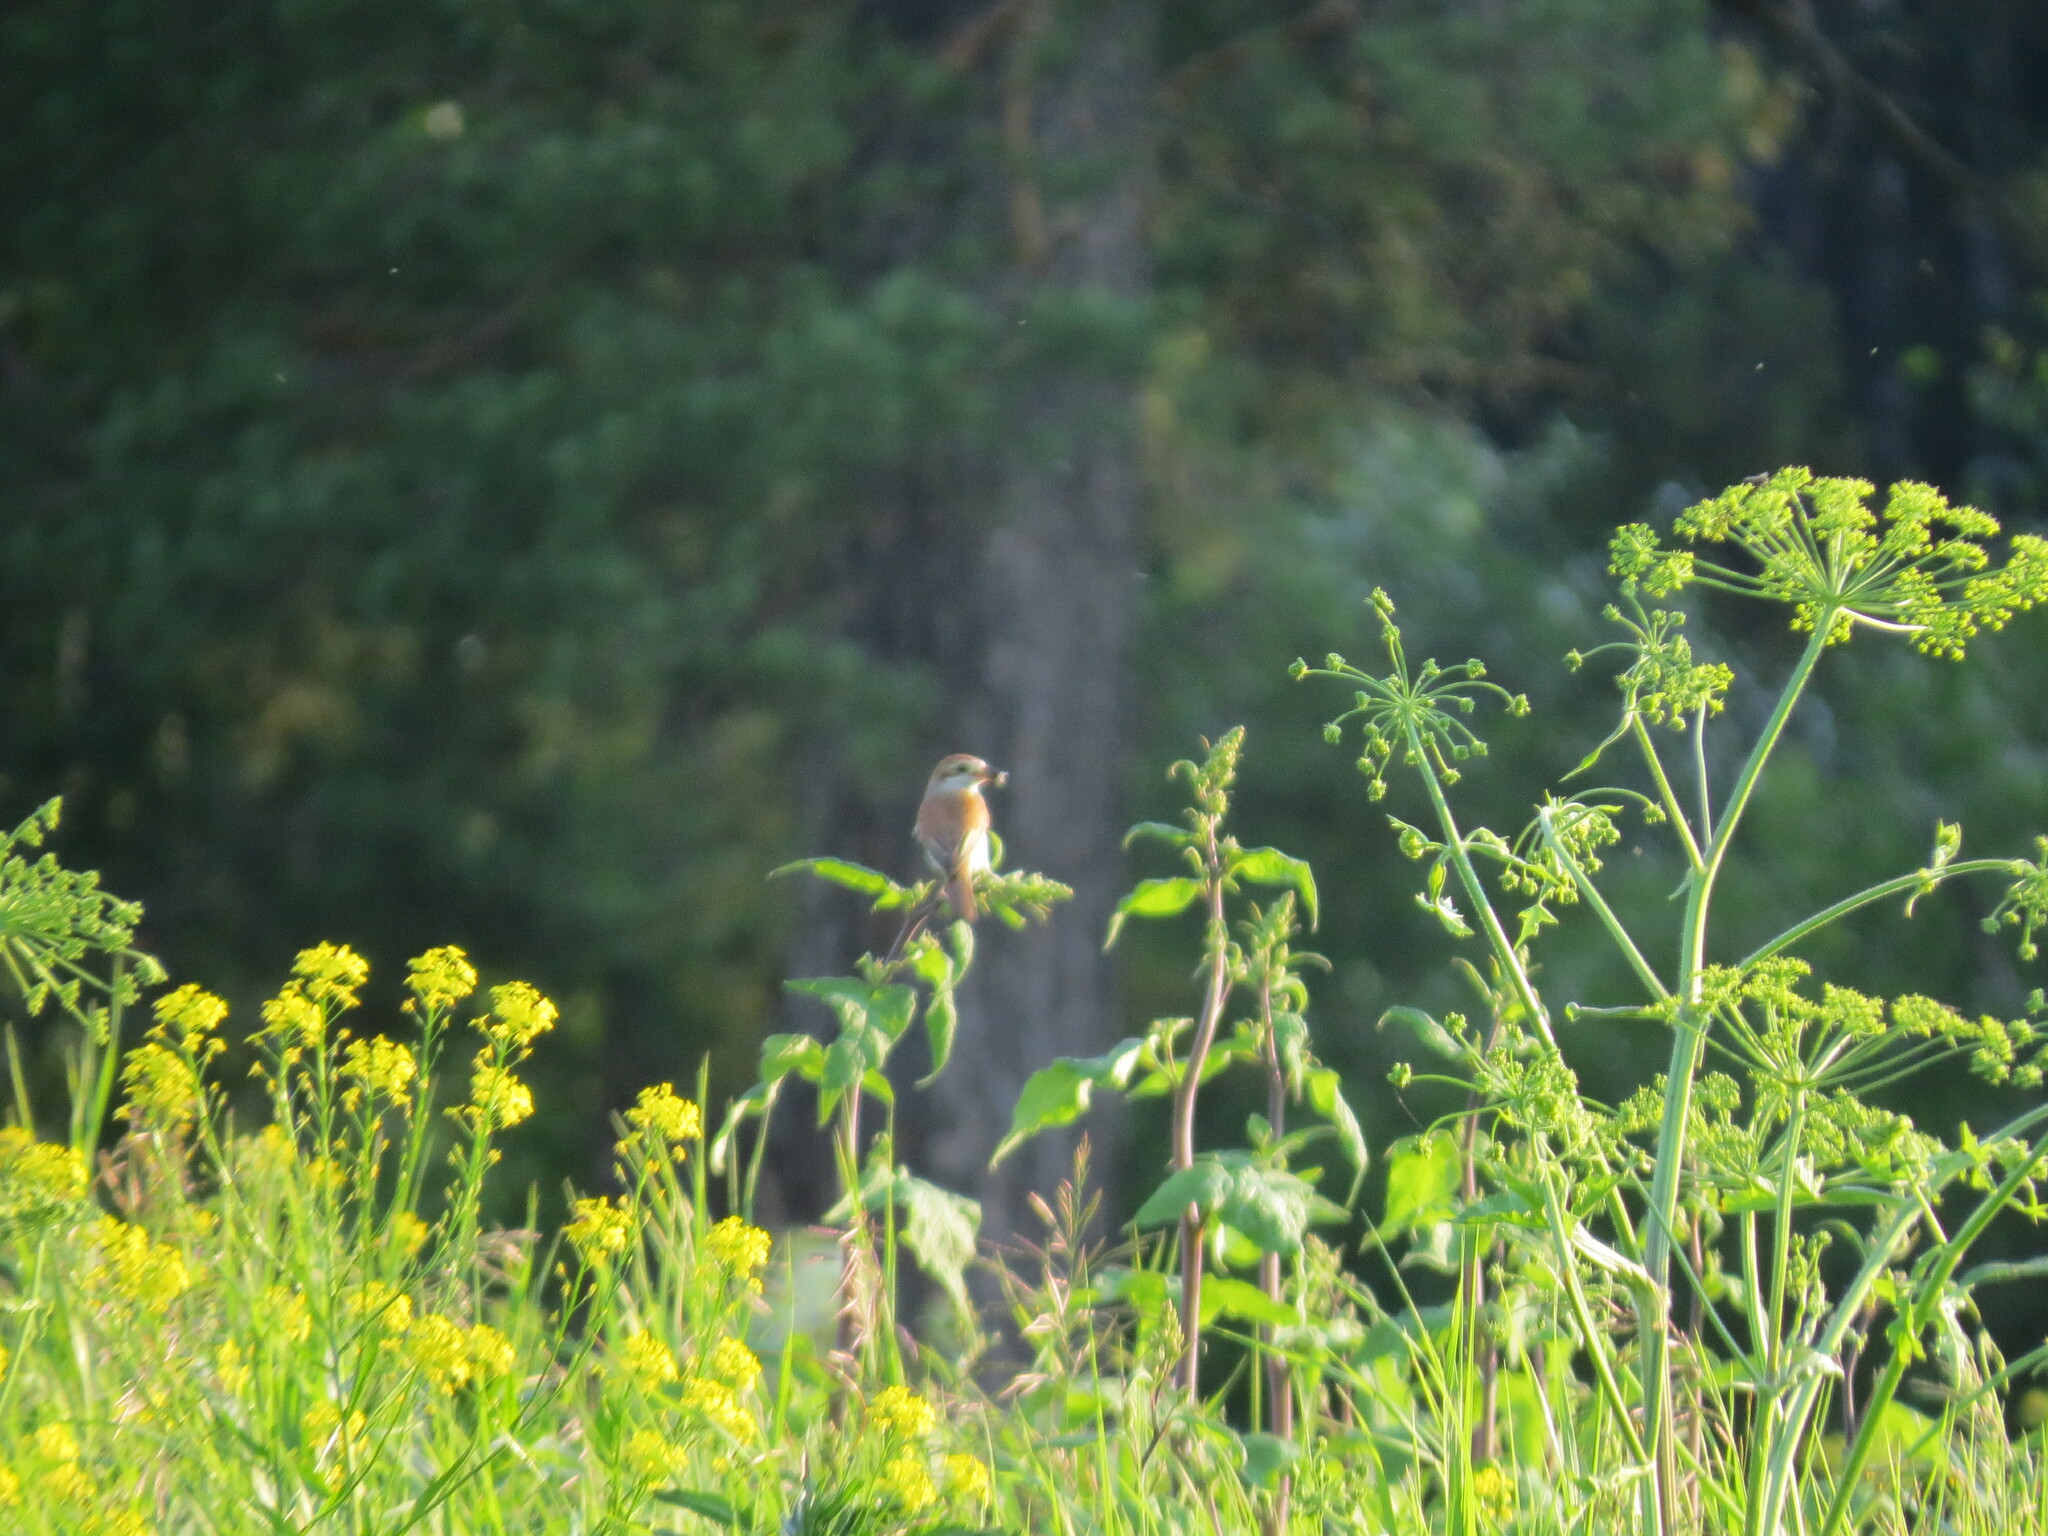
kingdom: Animalia
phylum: Chordata
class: Aves
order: Passeriformes
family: Laniidae
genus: Lanius
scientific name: Lanius collurio
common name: Red-backed shrike
